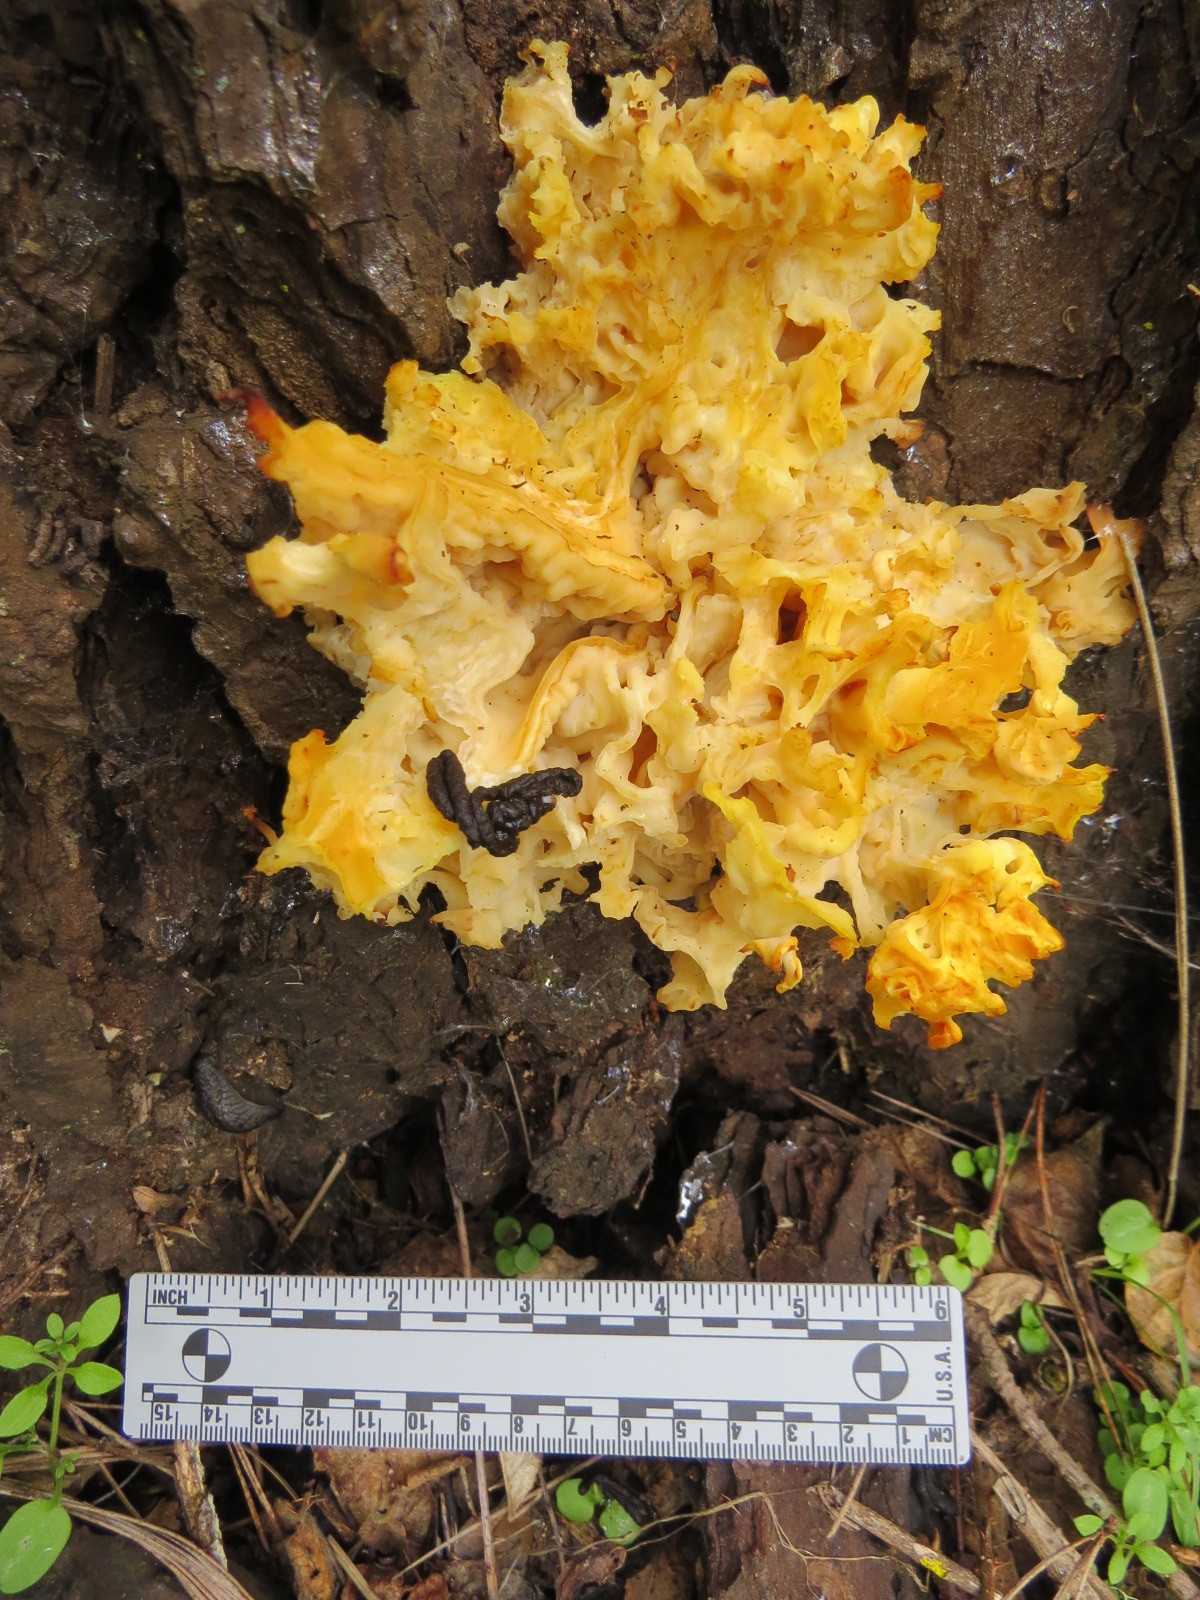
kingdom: Fungi
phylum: Basidiomycota
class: Agaricomycetes
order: Polyporales
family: Sparassidaceae
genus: Sparassis
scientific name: Sparassis radicata
